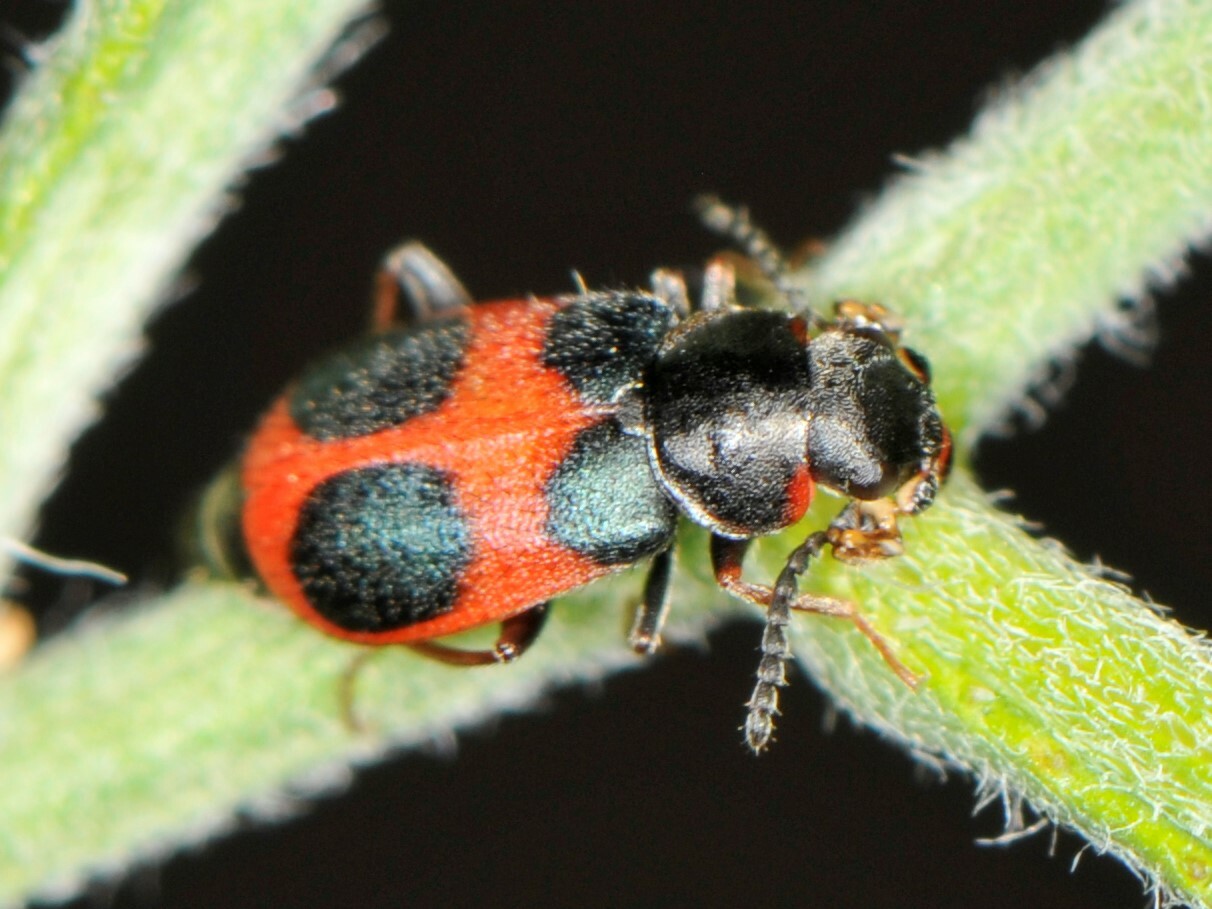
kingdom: Animalia
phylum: Arthropoda
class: Insecta
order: Coleoptera
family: Melyridae
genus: Collops
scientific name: Collops versatilis
